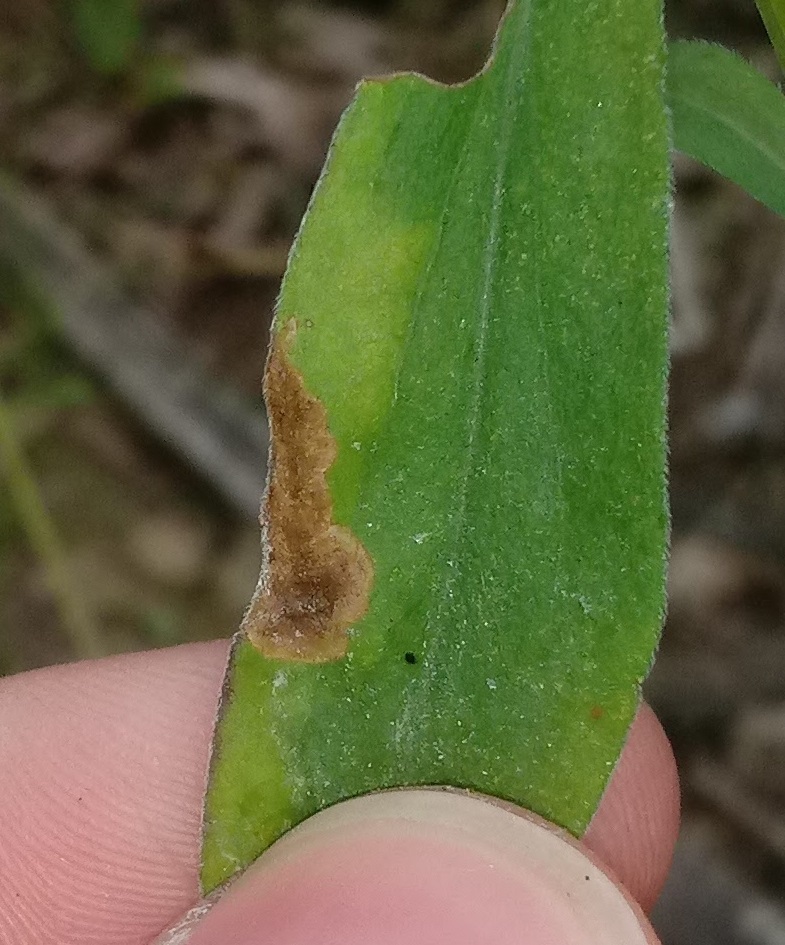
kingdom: Animalia
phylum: Arthropoda
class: Insecta
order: Diptera
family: Agromyzidae
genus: Nemorimyza
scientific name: Nemorimyza posticata
